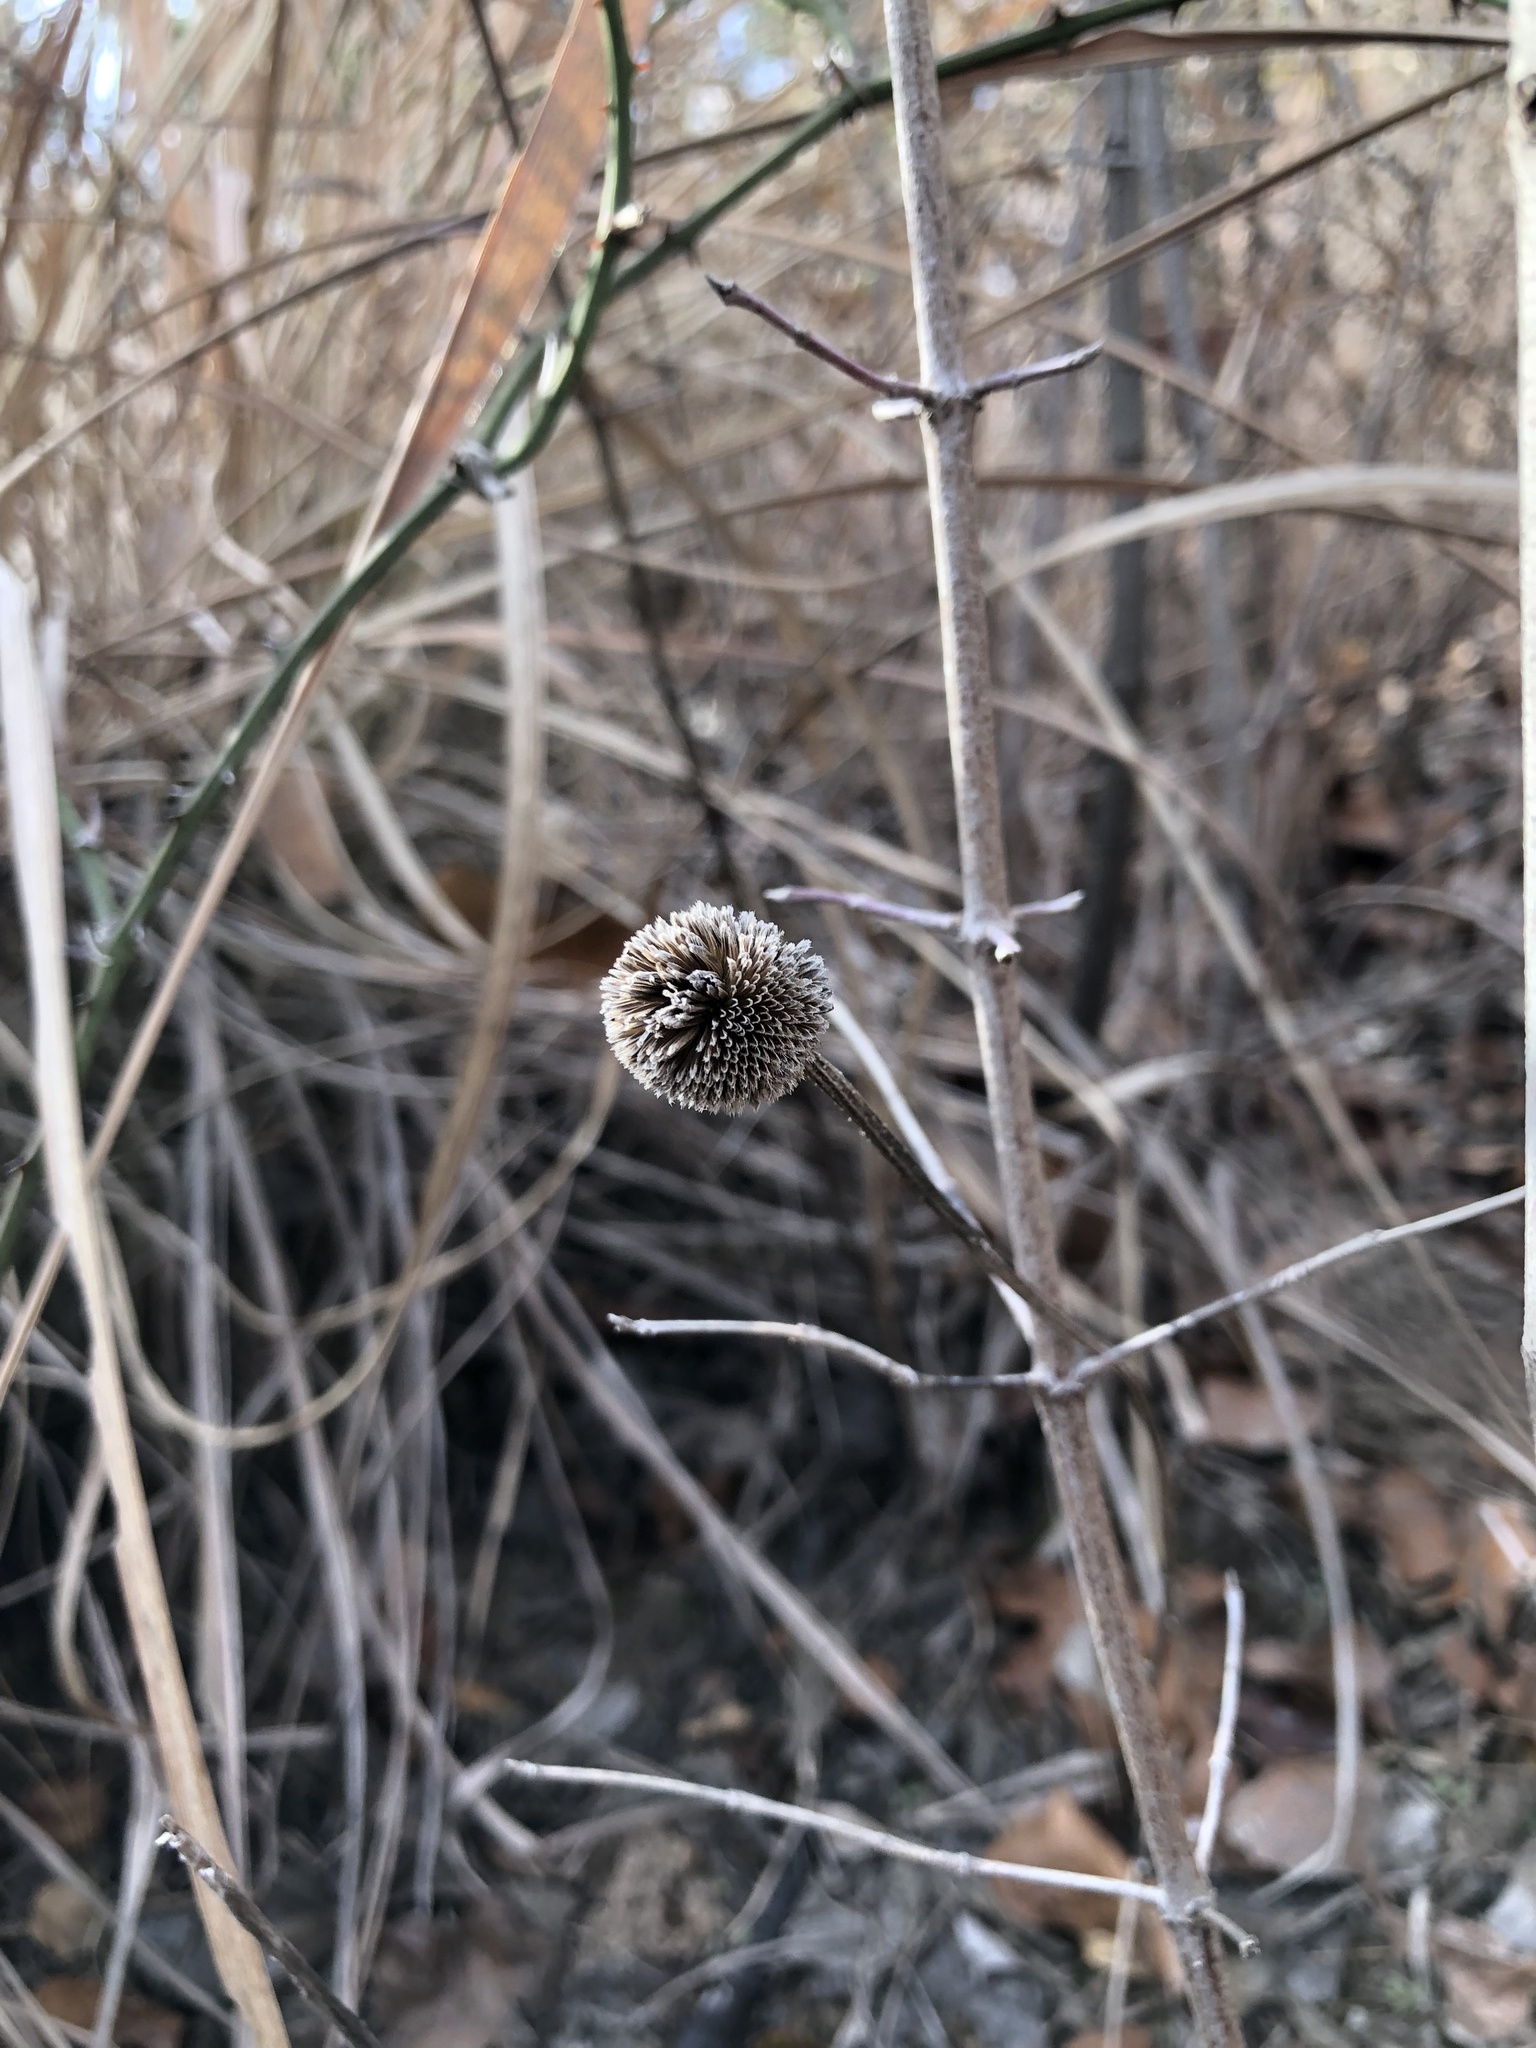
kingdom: Plantae
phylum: Tracheophyta
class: Magnoliopsida
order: Asterales
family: Asteraceae
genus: Rudbeckia
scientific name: Rudbeckia hirta
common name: Black-eyed-susan
